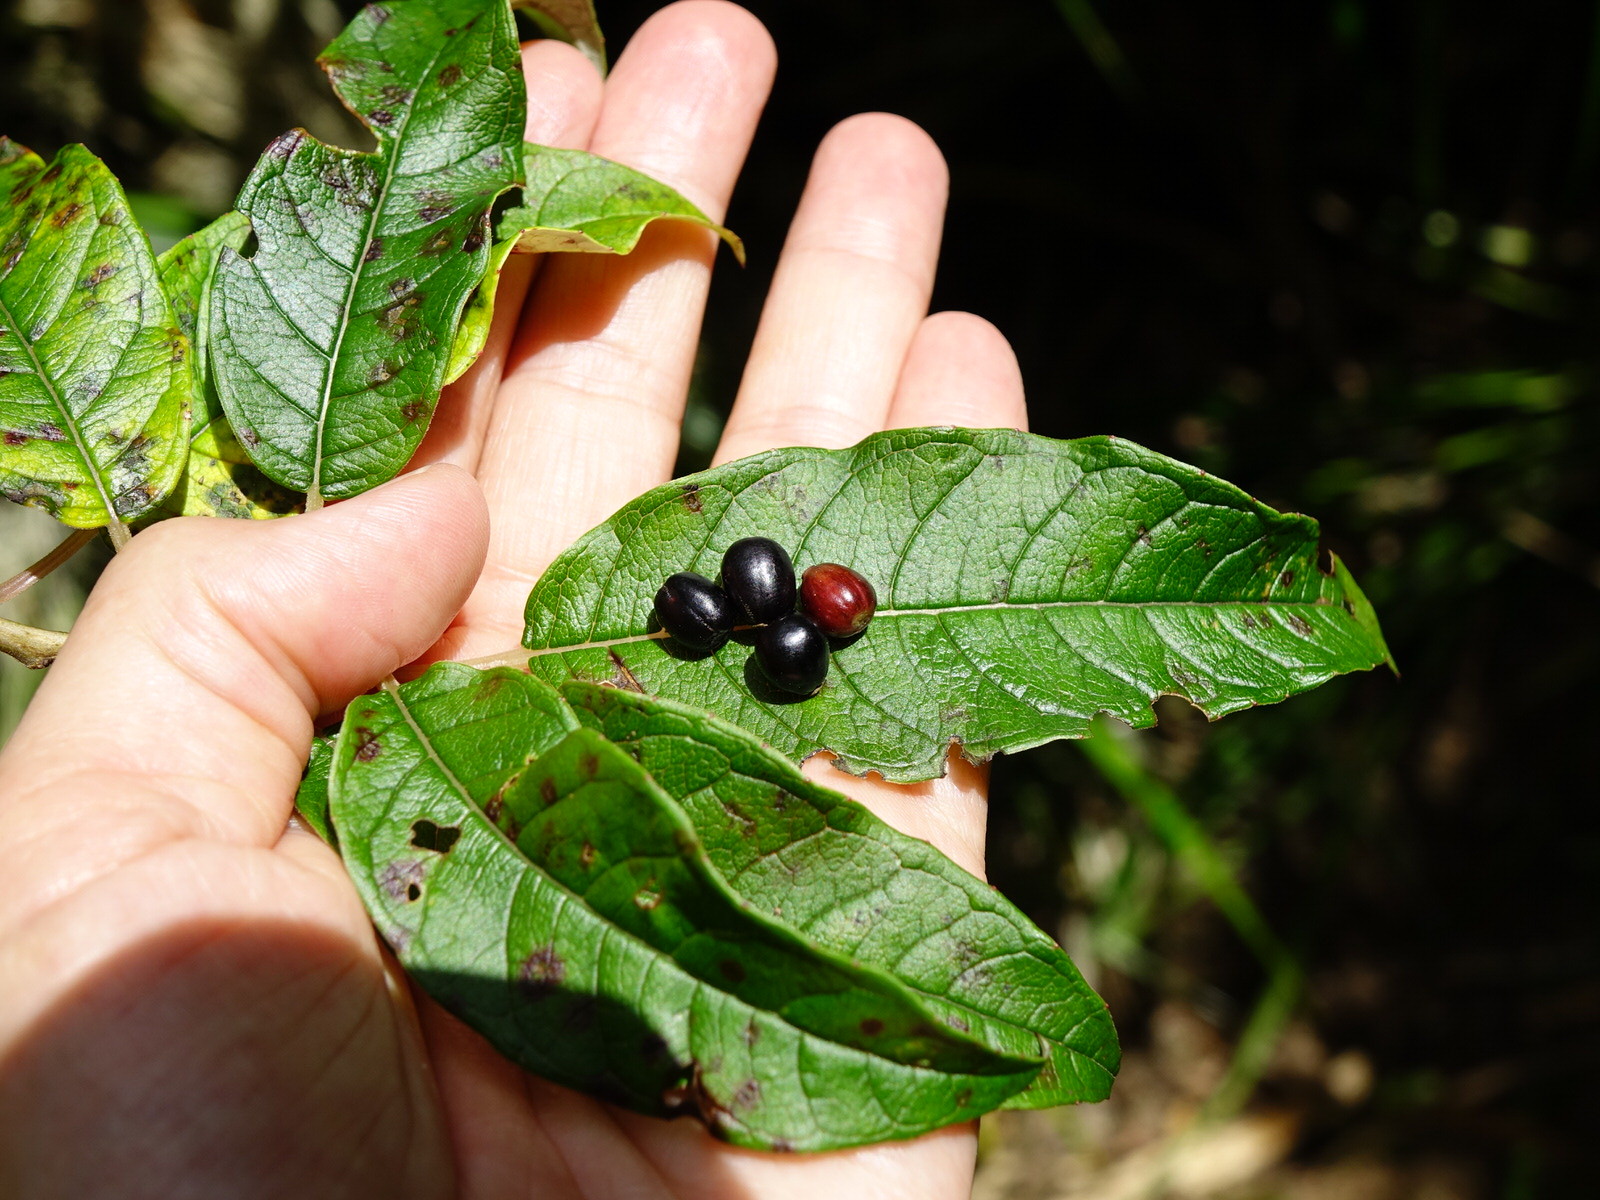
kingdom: Plantae
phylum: Tracheophyta
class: Magnoliopsida
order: Myrtales
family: Onagraceae
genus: Fuchsia
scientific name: Fuchsia excorticata
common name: Tree fuchsia
